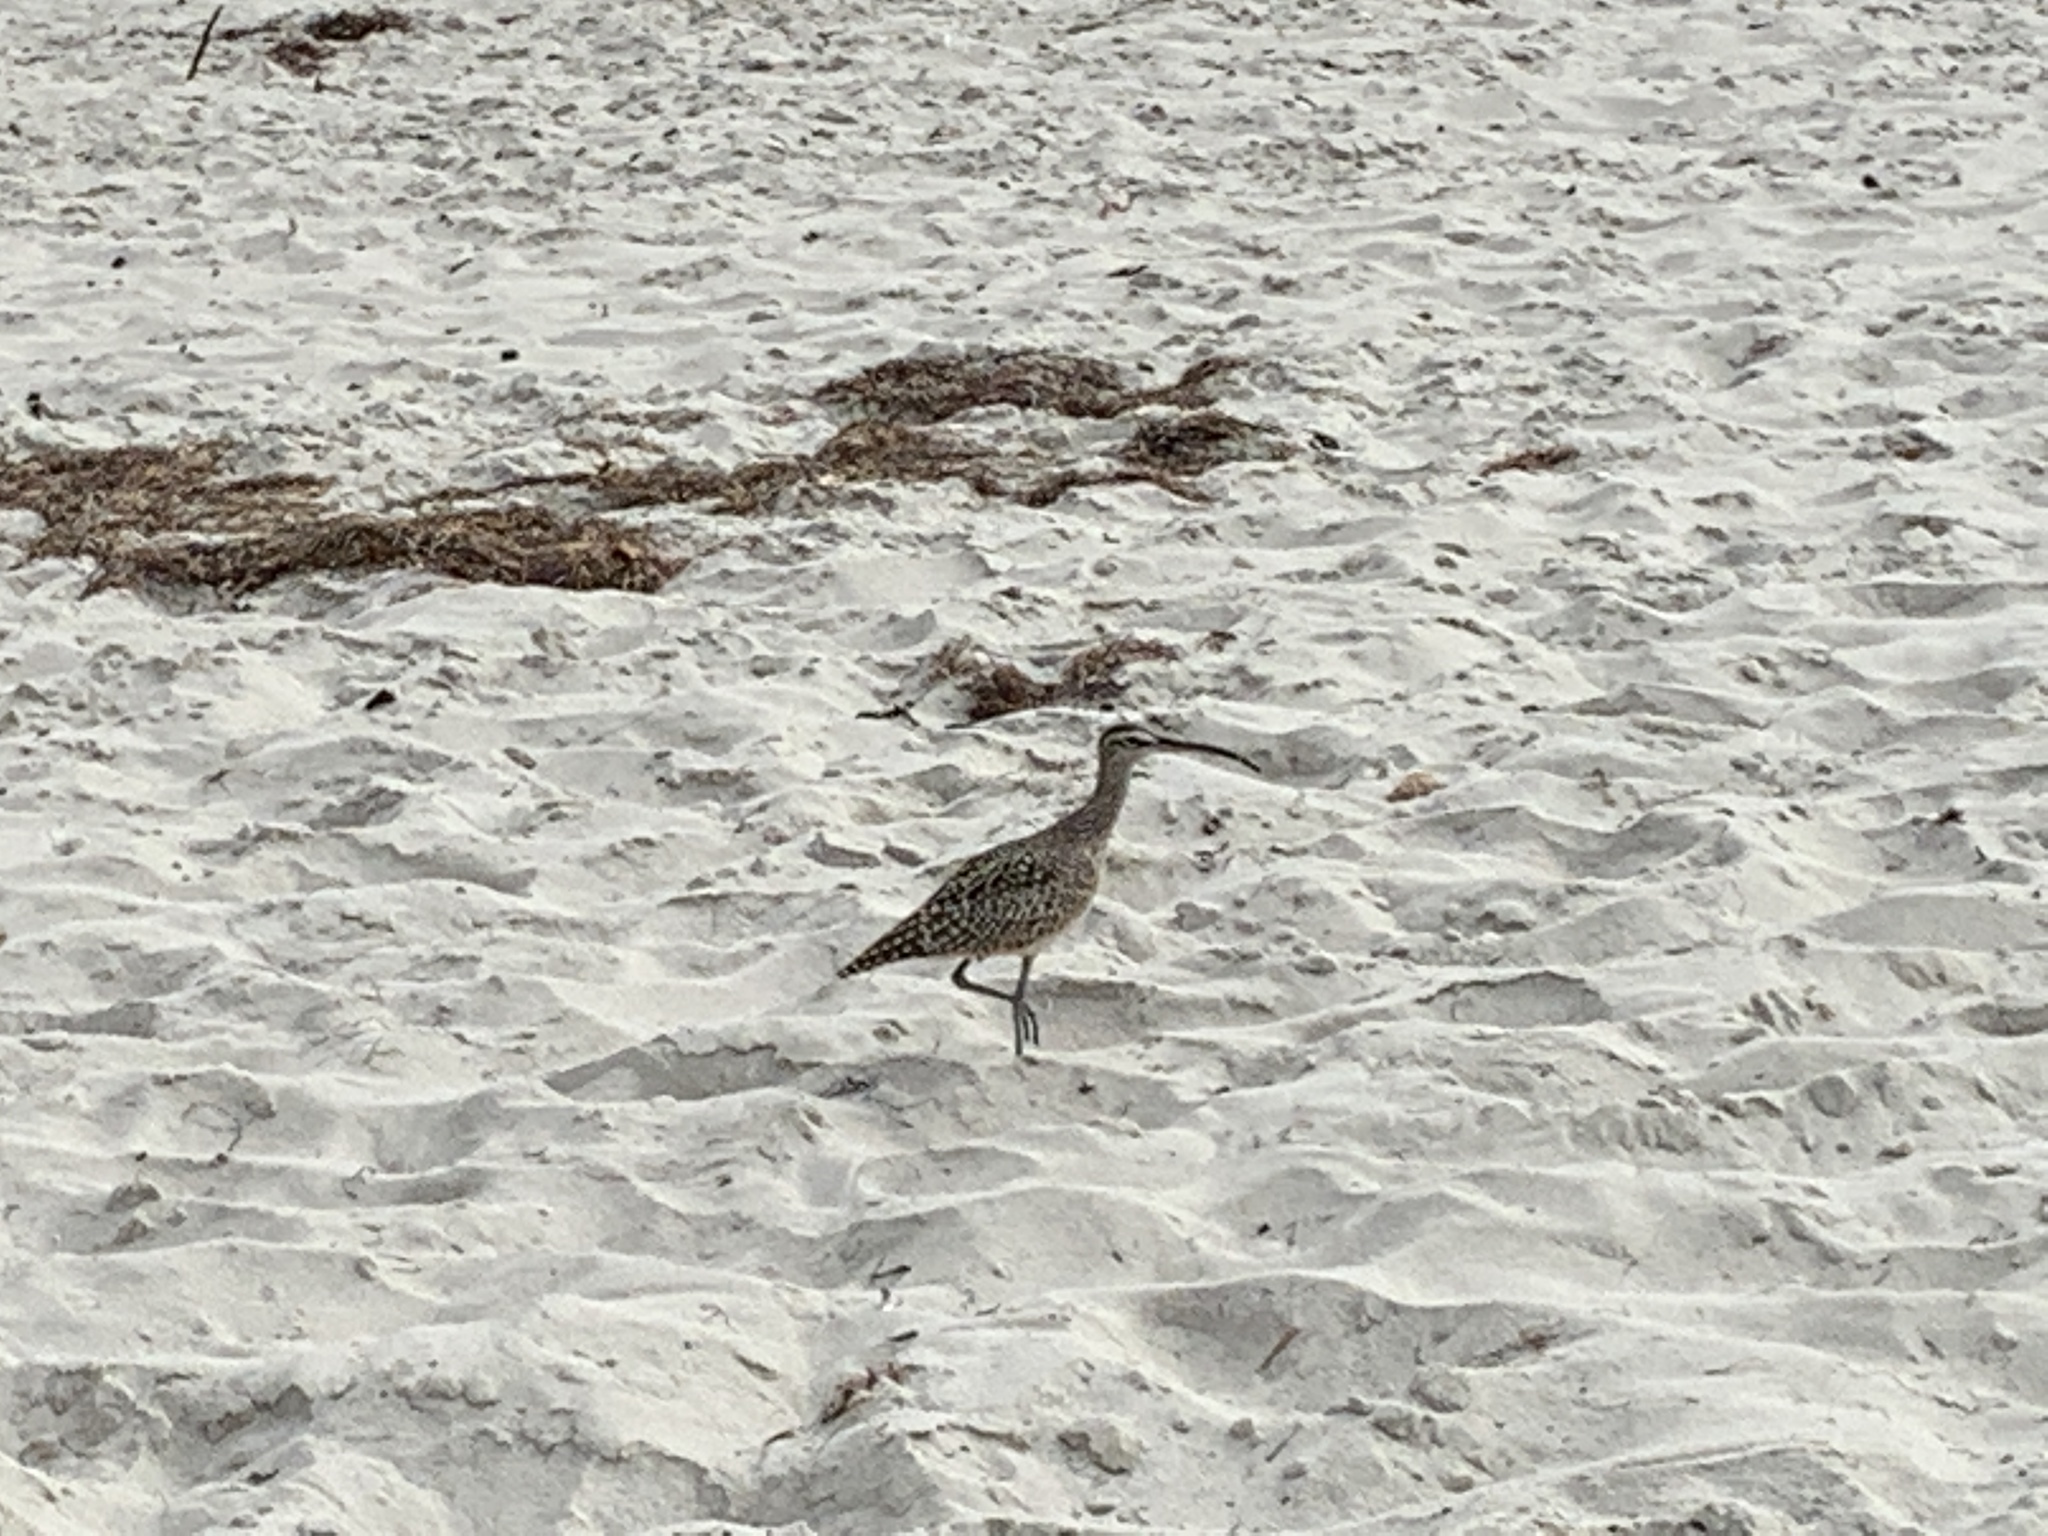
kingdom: Animalia
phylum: Chordata
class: Aves
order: Charadriiformes
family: Scolopacidae
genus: Numenius
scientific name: Numenius phaeopus
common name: Whimbrel
